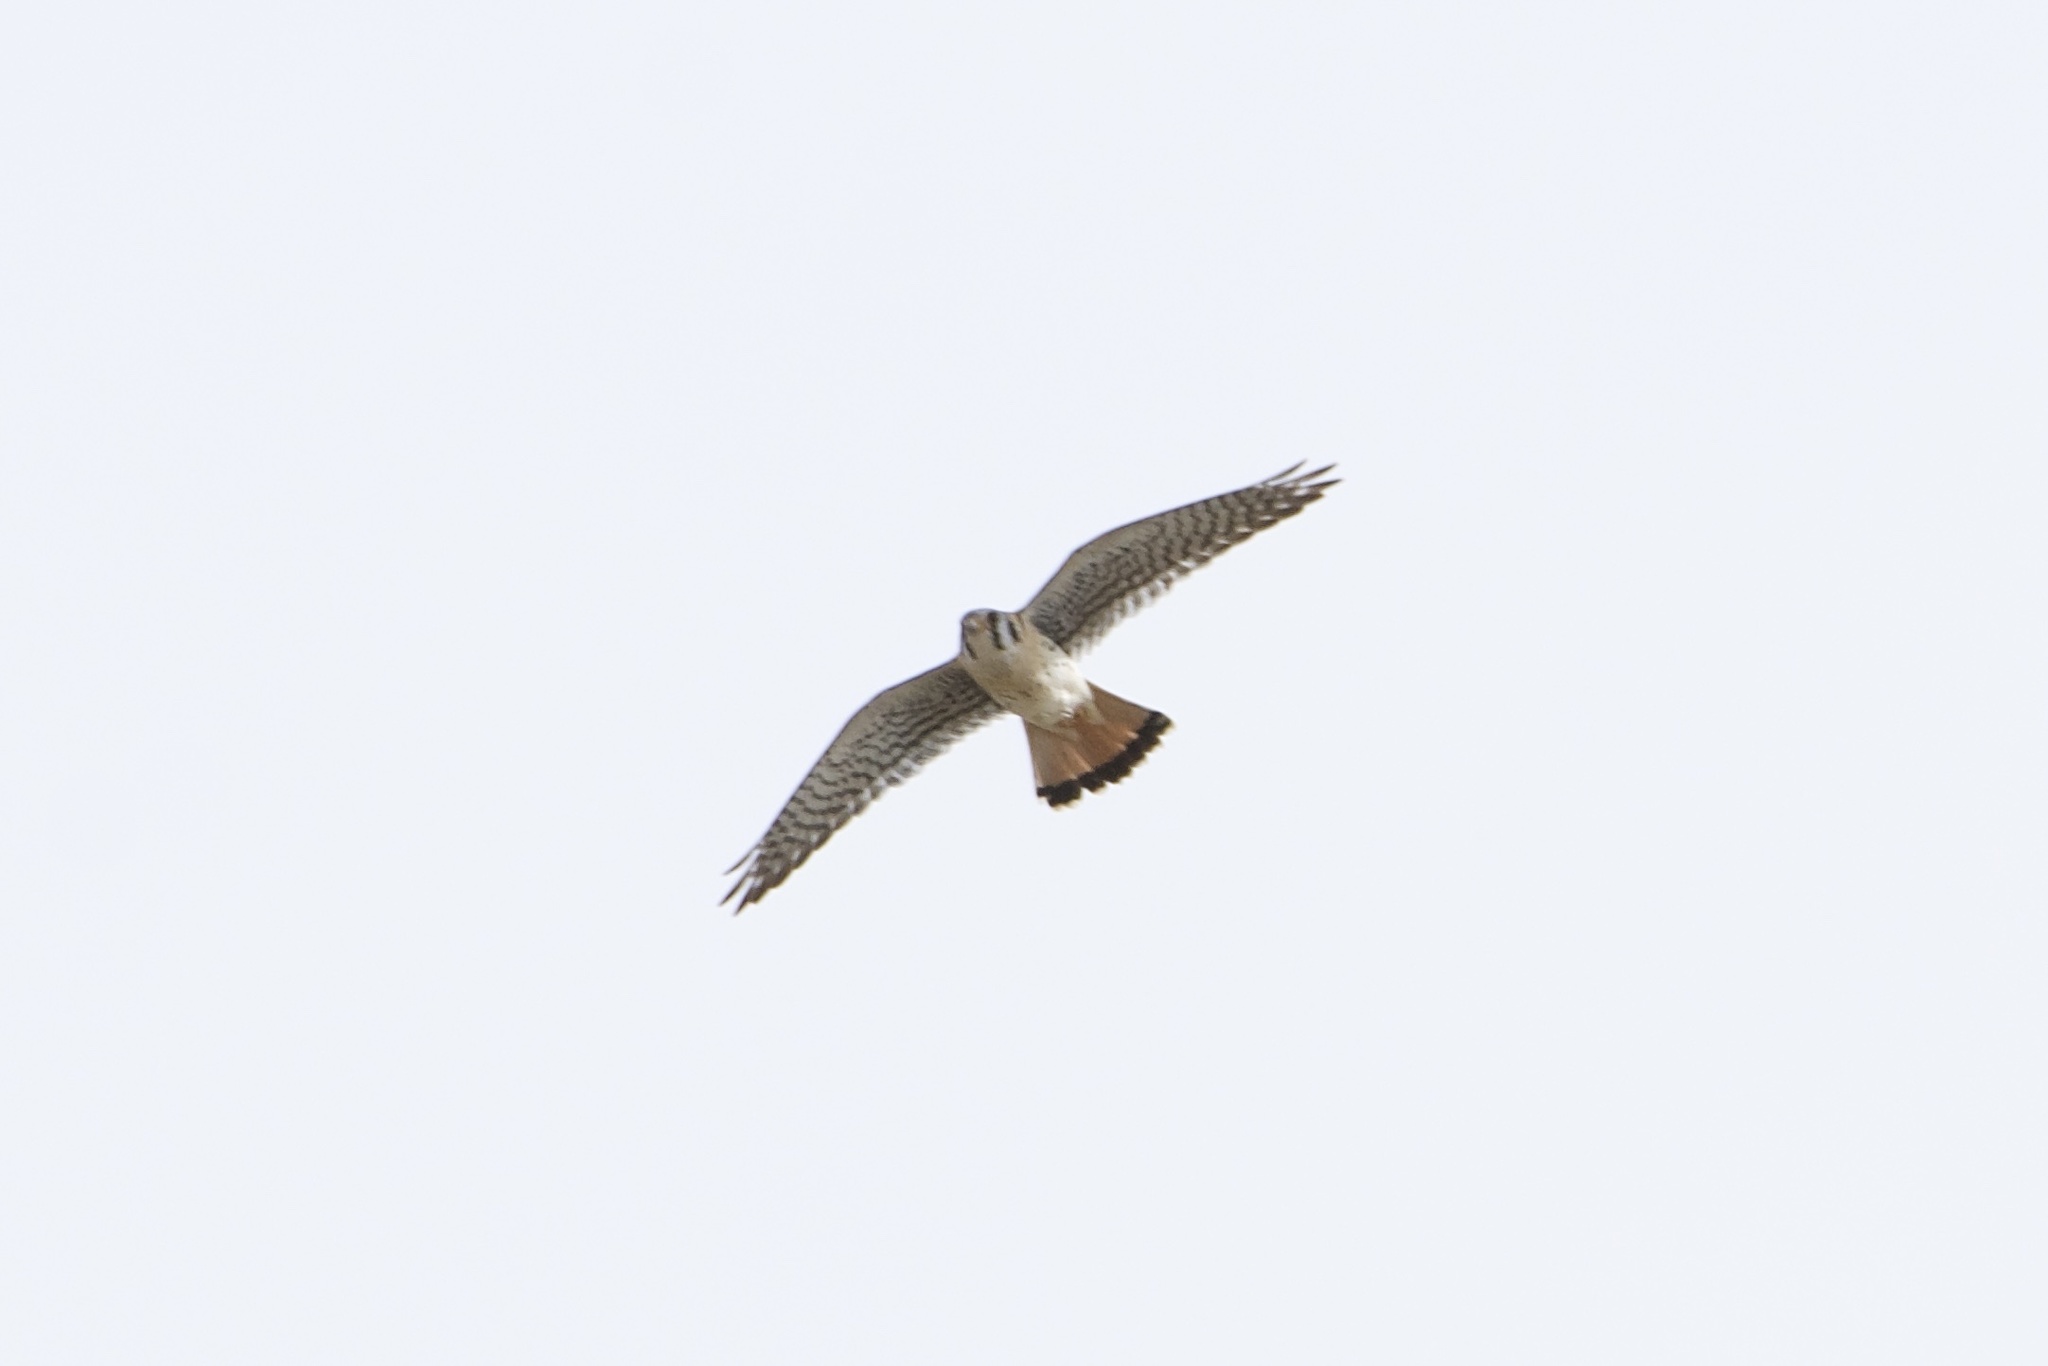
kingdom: Animalia
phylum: Chordata
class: Aves
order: Falconiformes
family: Falconidae
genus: Falco
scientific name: Falco sparverius
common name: American kestrel
